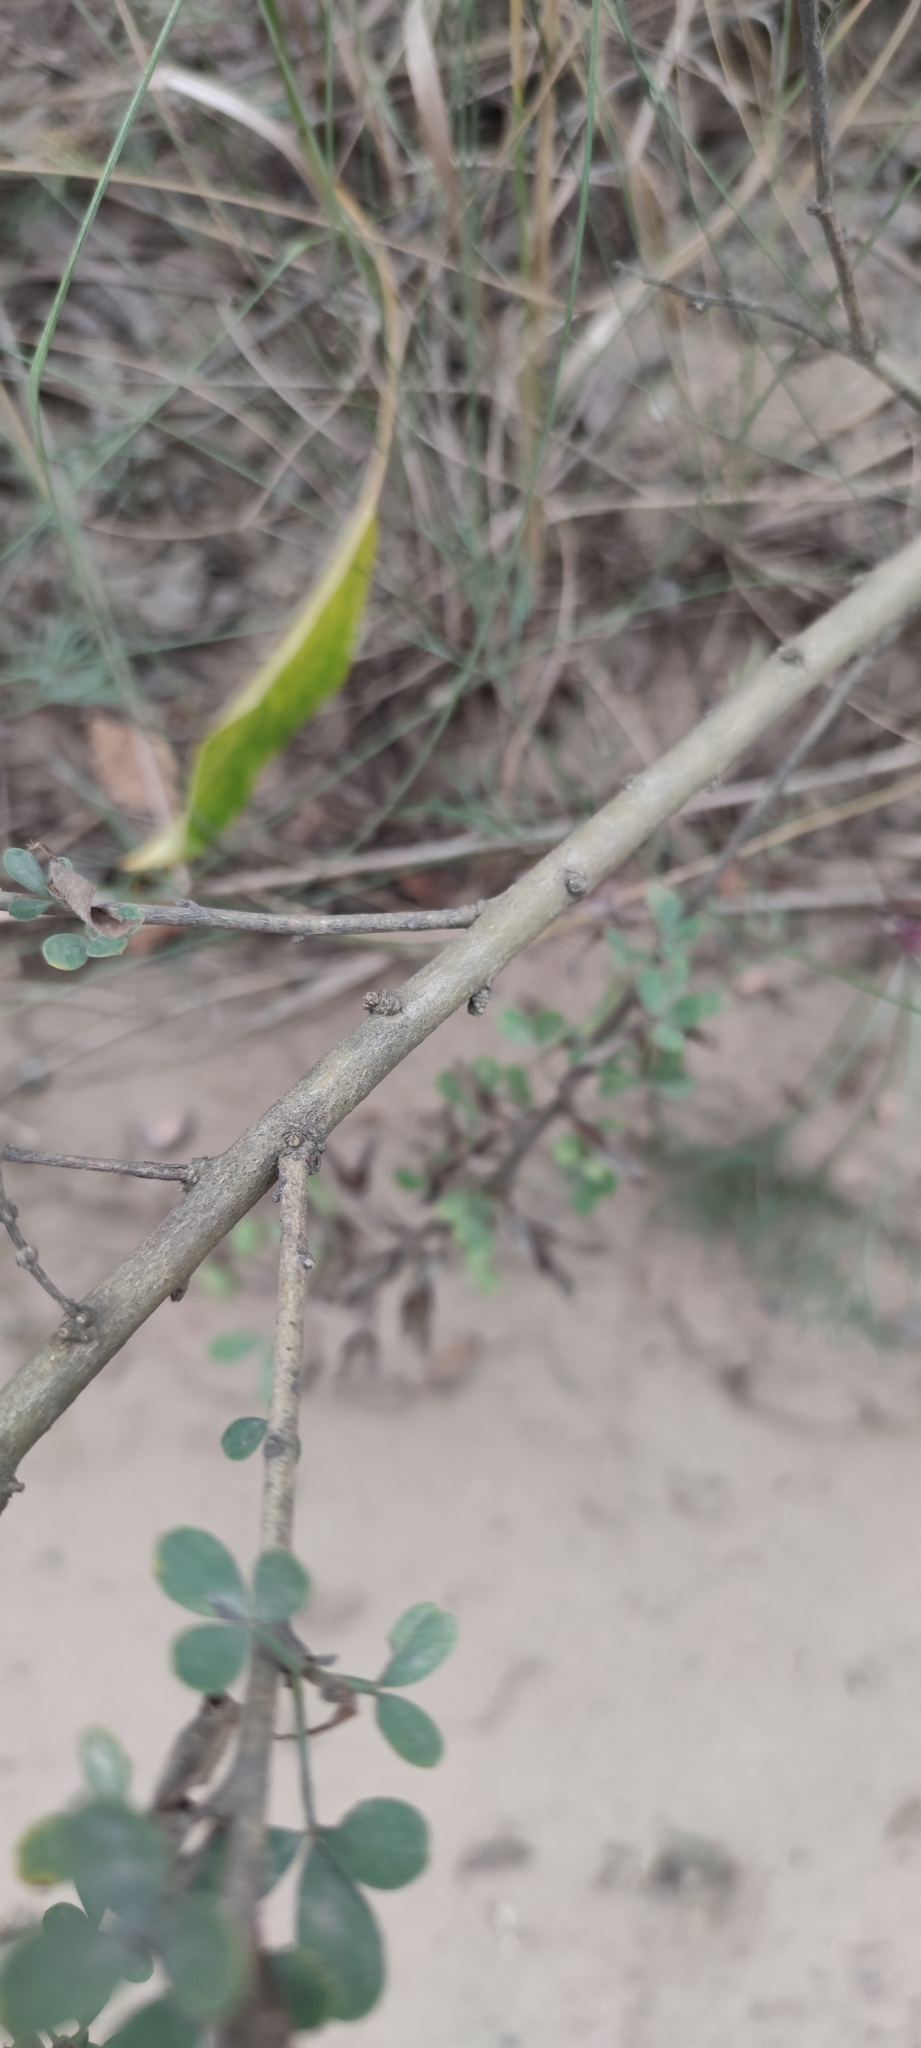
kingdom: Plantae
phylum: Tracheophyta
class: Magnoliopsida
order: Fabales
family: Fabaceae
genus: Chamaecytisus
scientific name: Chamaecytisus ruthenicus
